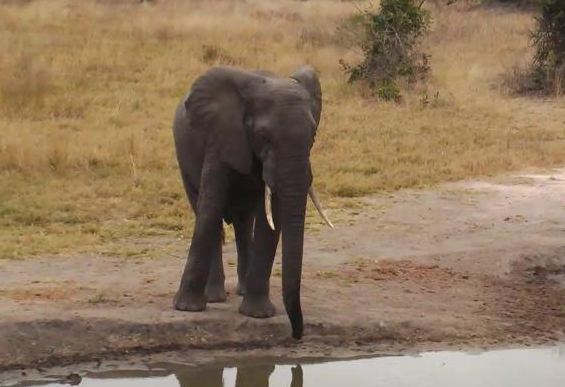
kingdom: Animalia
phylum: Chordata
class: Mammalia
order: Proboscidea
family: Elephantidae
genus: Loxodonta
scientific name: Loxodonta africana
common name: African elephant
